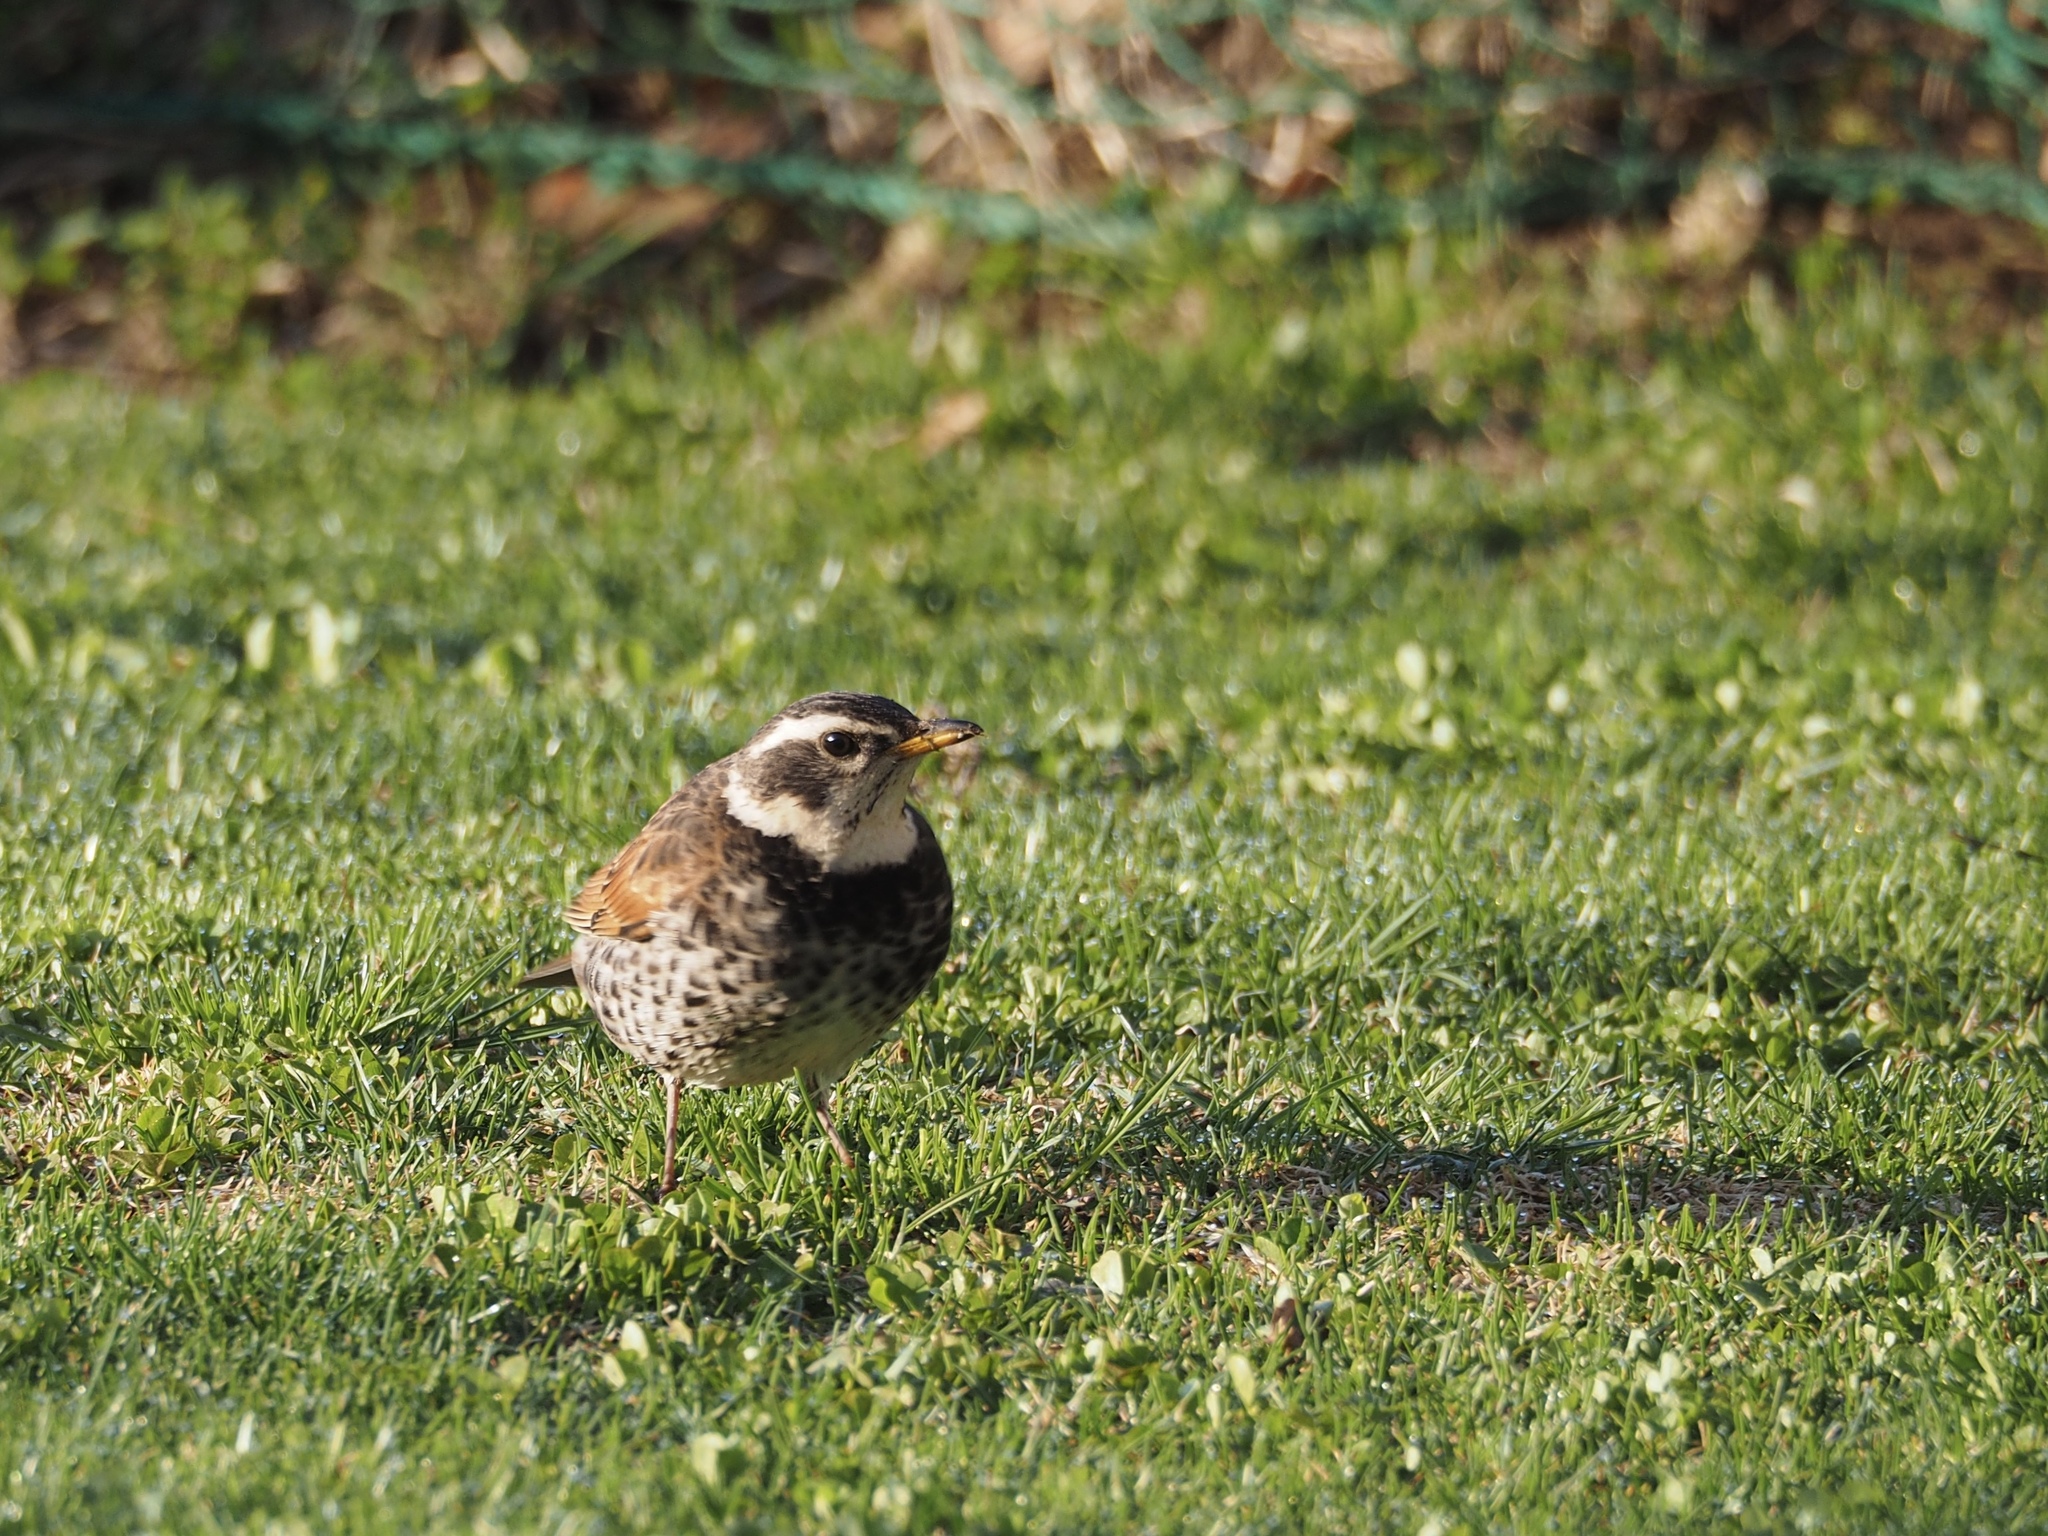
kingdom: Animalia
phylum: Chordata
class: Aves
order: Passeriformes
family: Turdidae
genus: Turdus
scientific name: Turdus eunomus
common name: Dusky thrush
